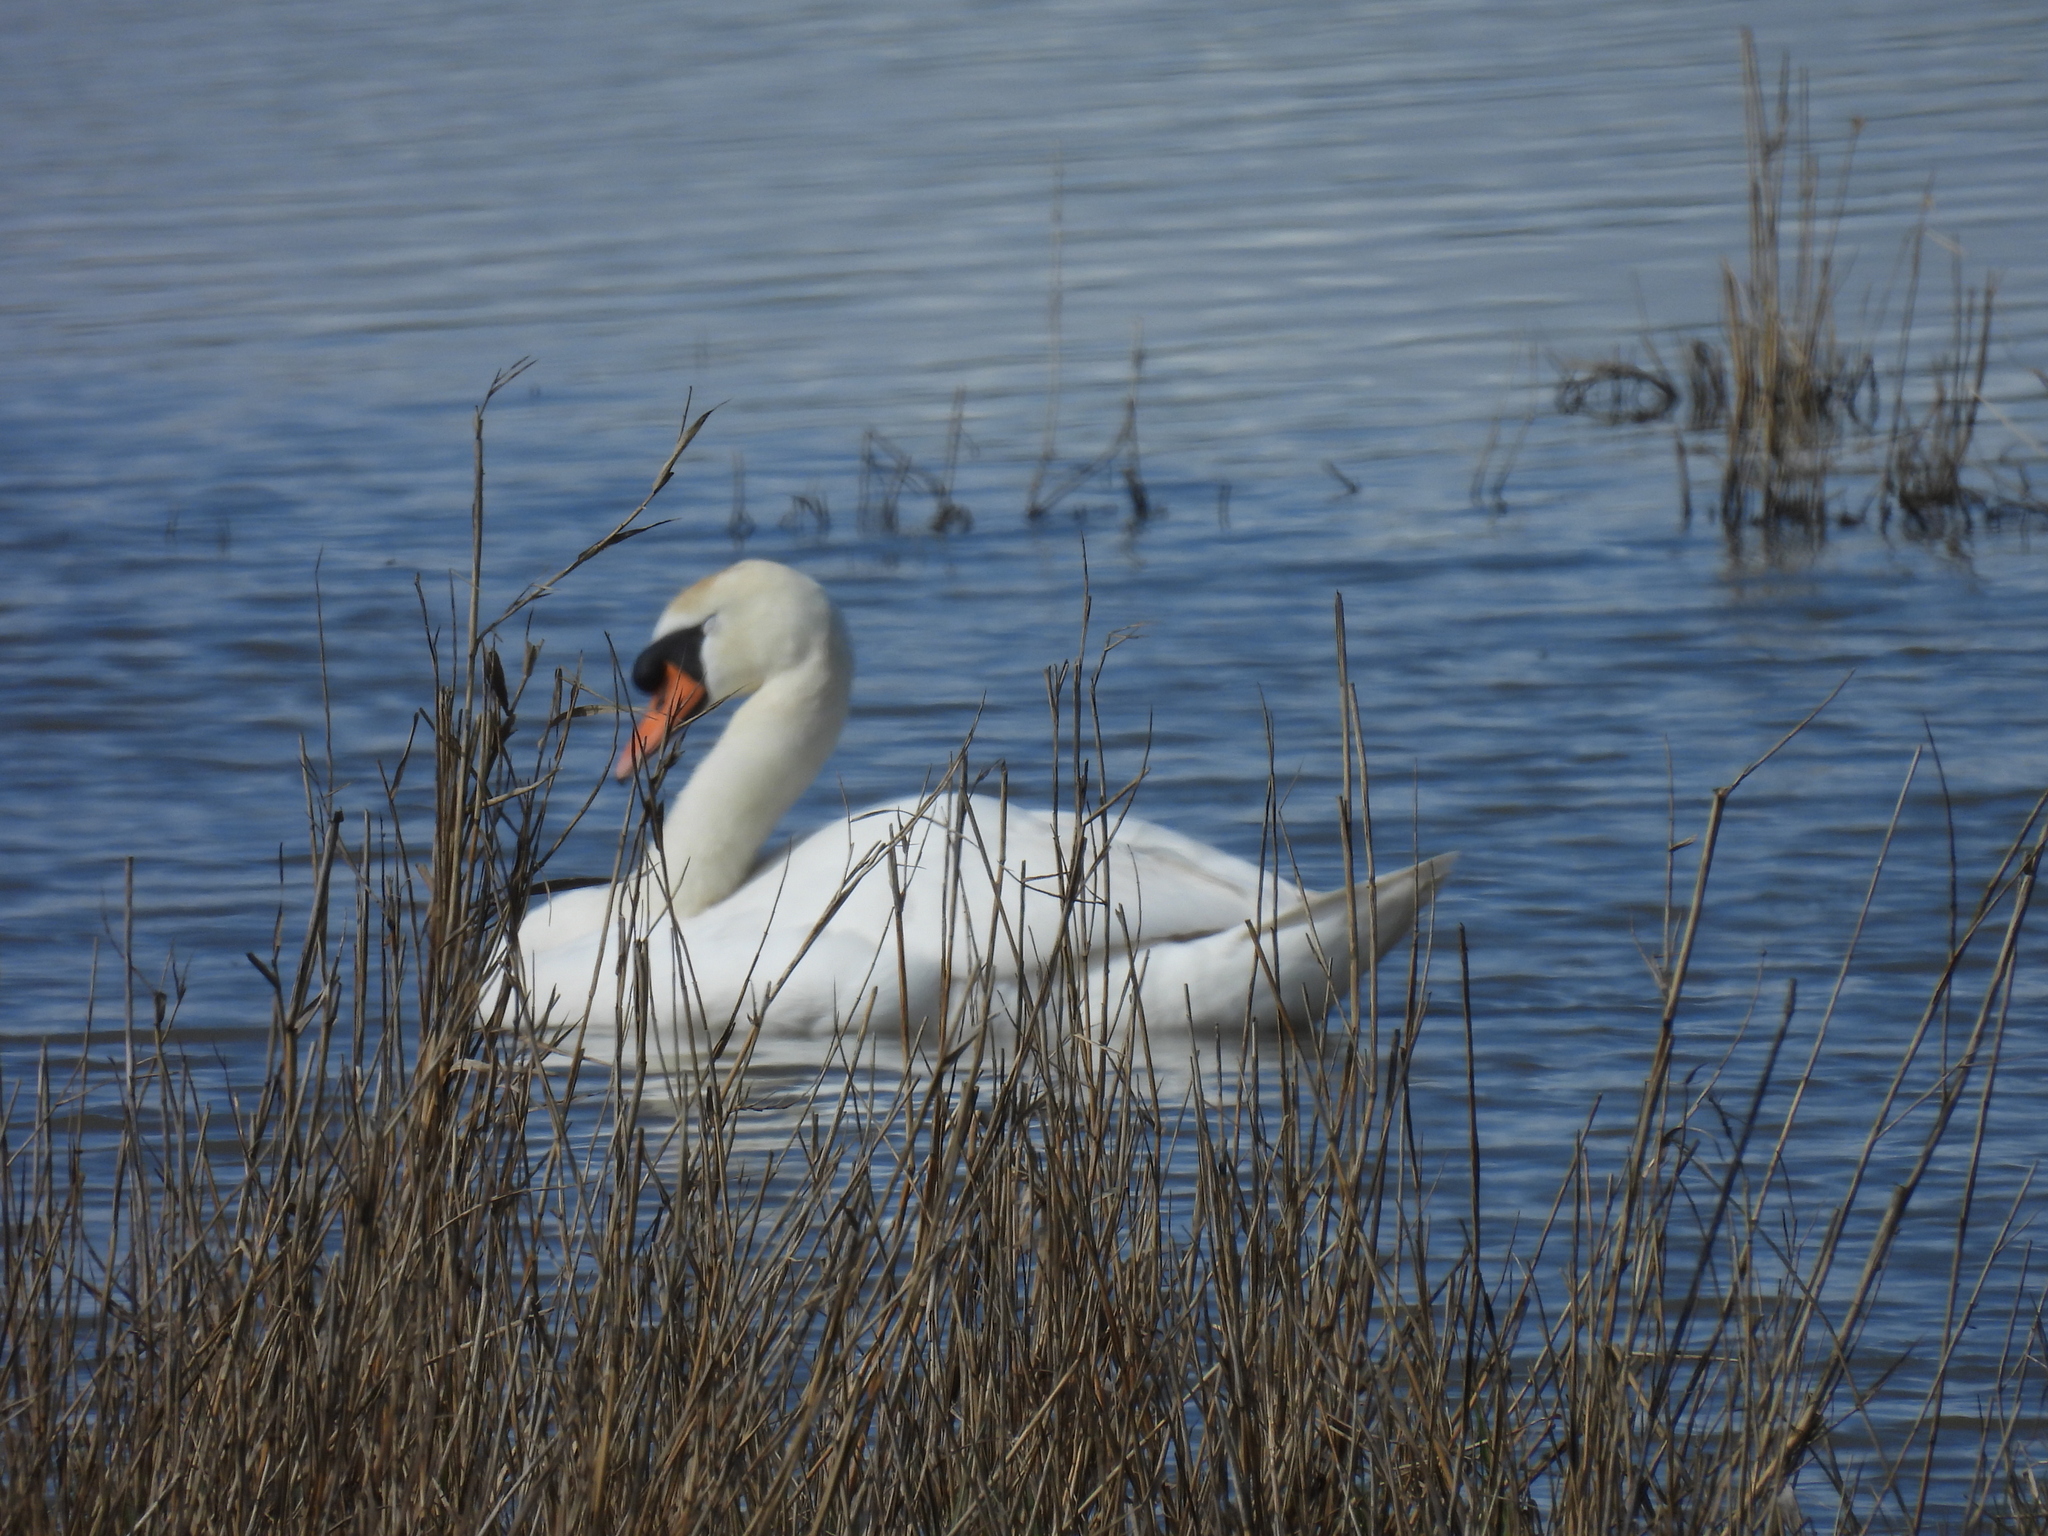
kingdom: Animalia
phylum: Chordata
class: Aves
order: Anseriformes
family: Anatidae
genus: Cygnus
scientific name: Cygnus olor
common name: Mute swan
